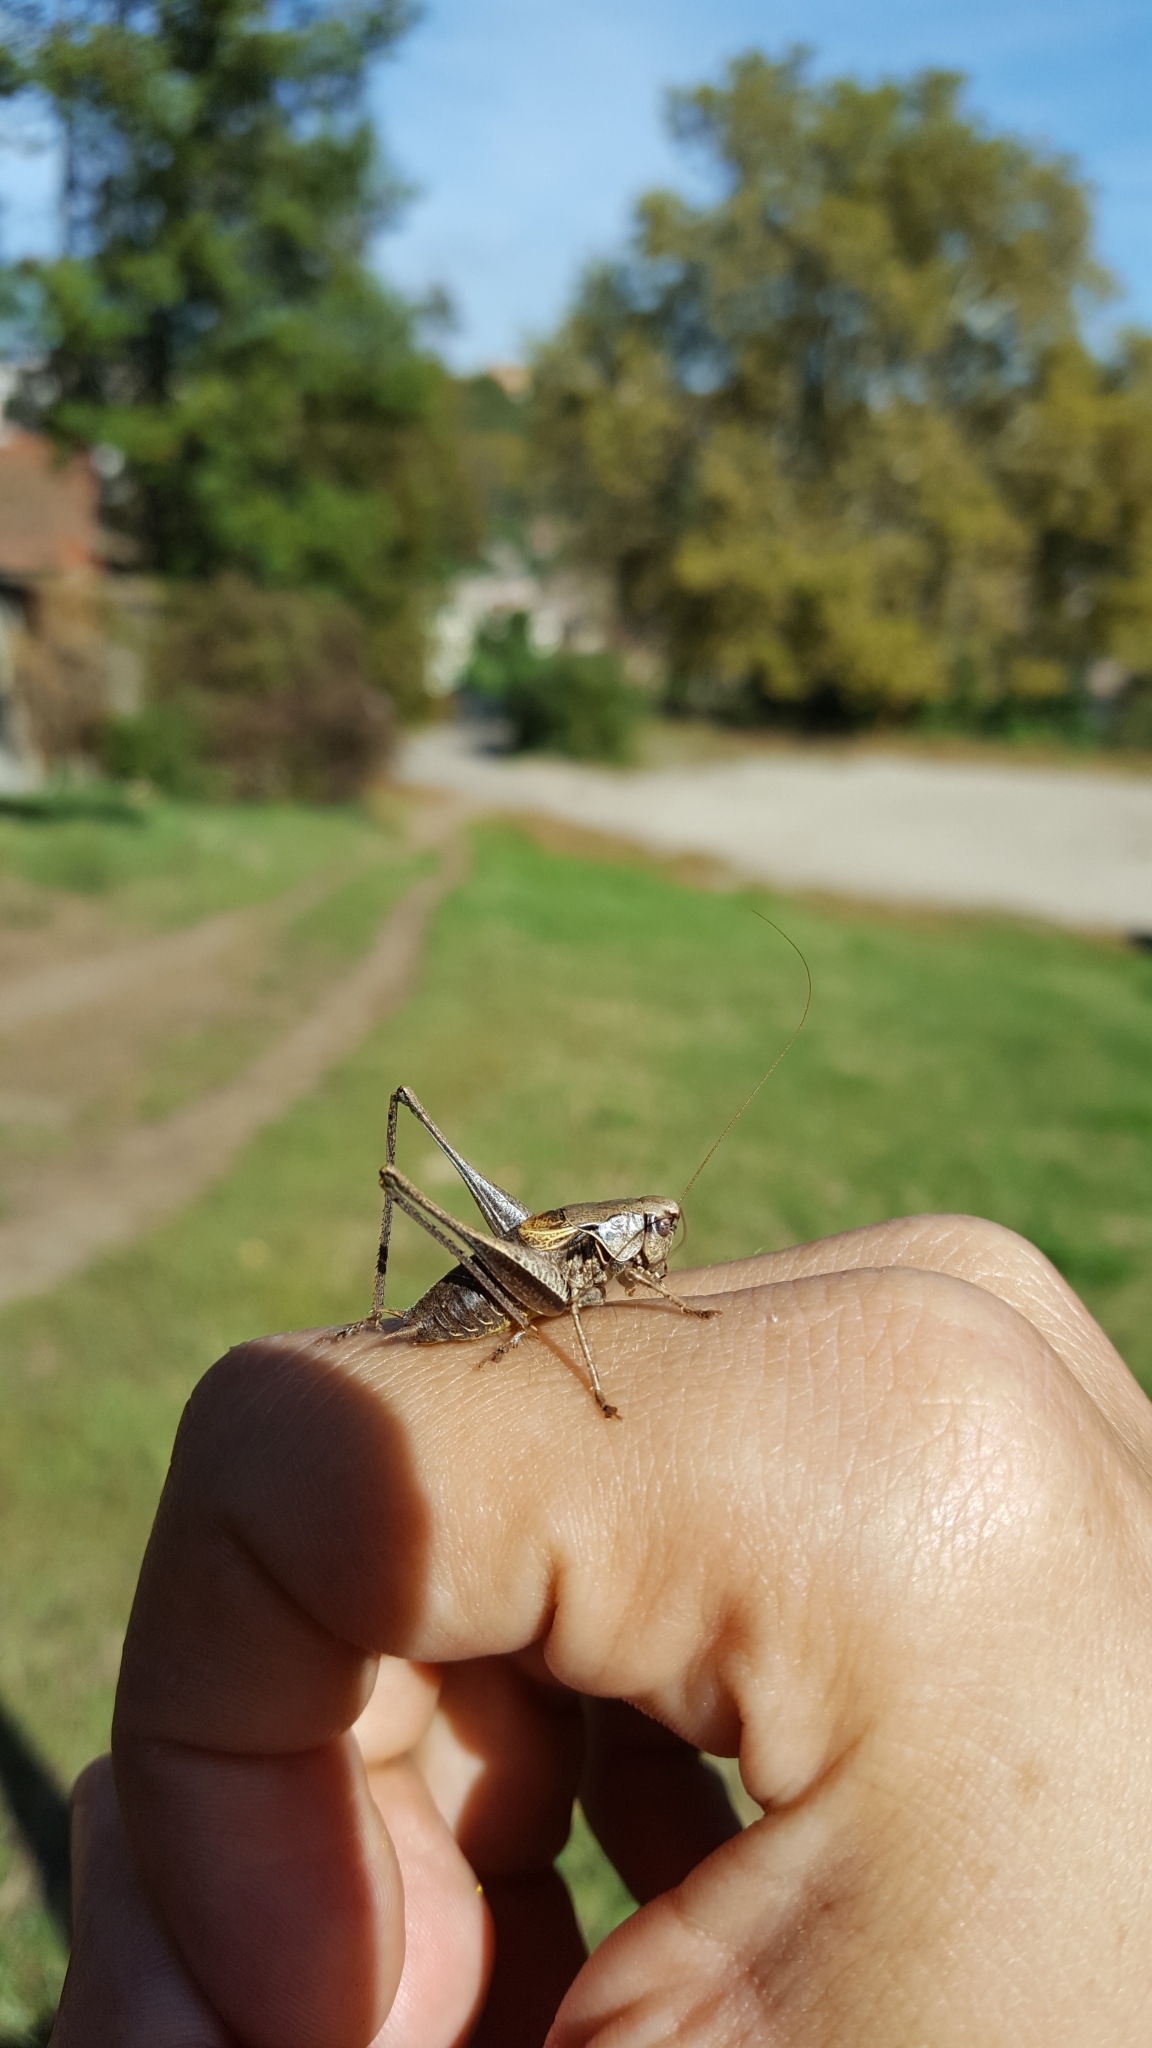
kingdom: Animalia
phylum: Arthropoda
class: Insecta
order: Orthoptera
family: Tettigoniidae
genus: Pholidoptera
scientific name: Pholidoptera griseoaptera
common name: Dark bush-cricket
